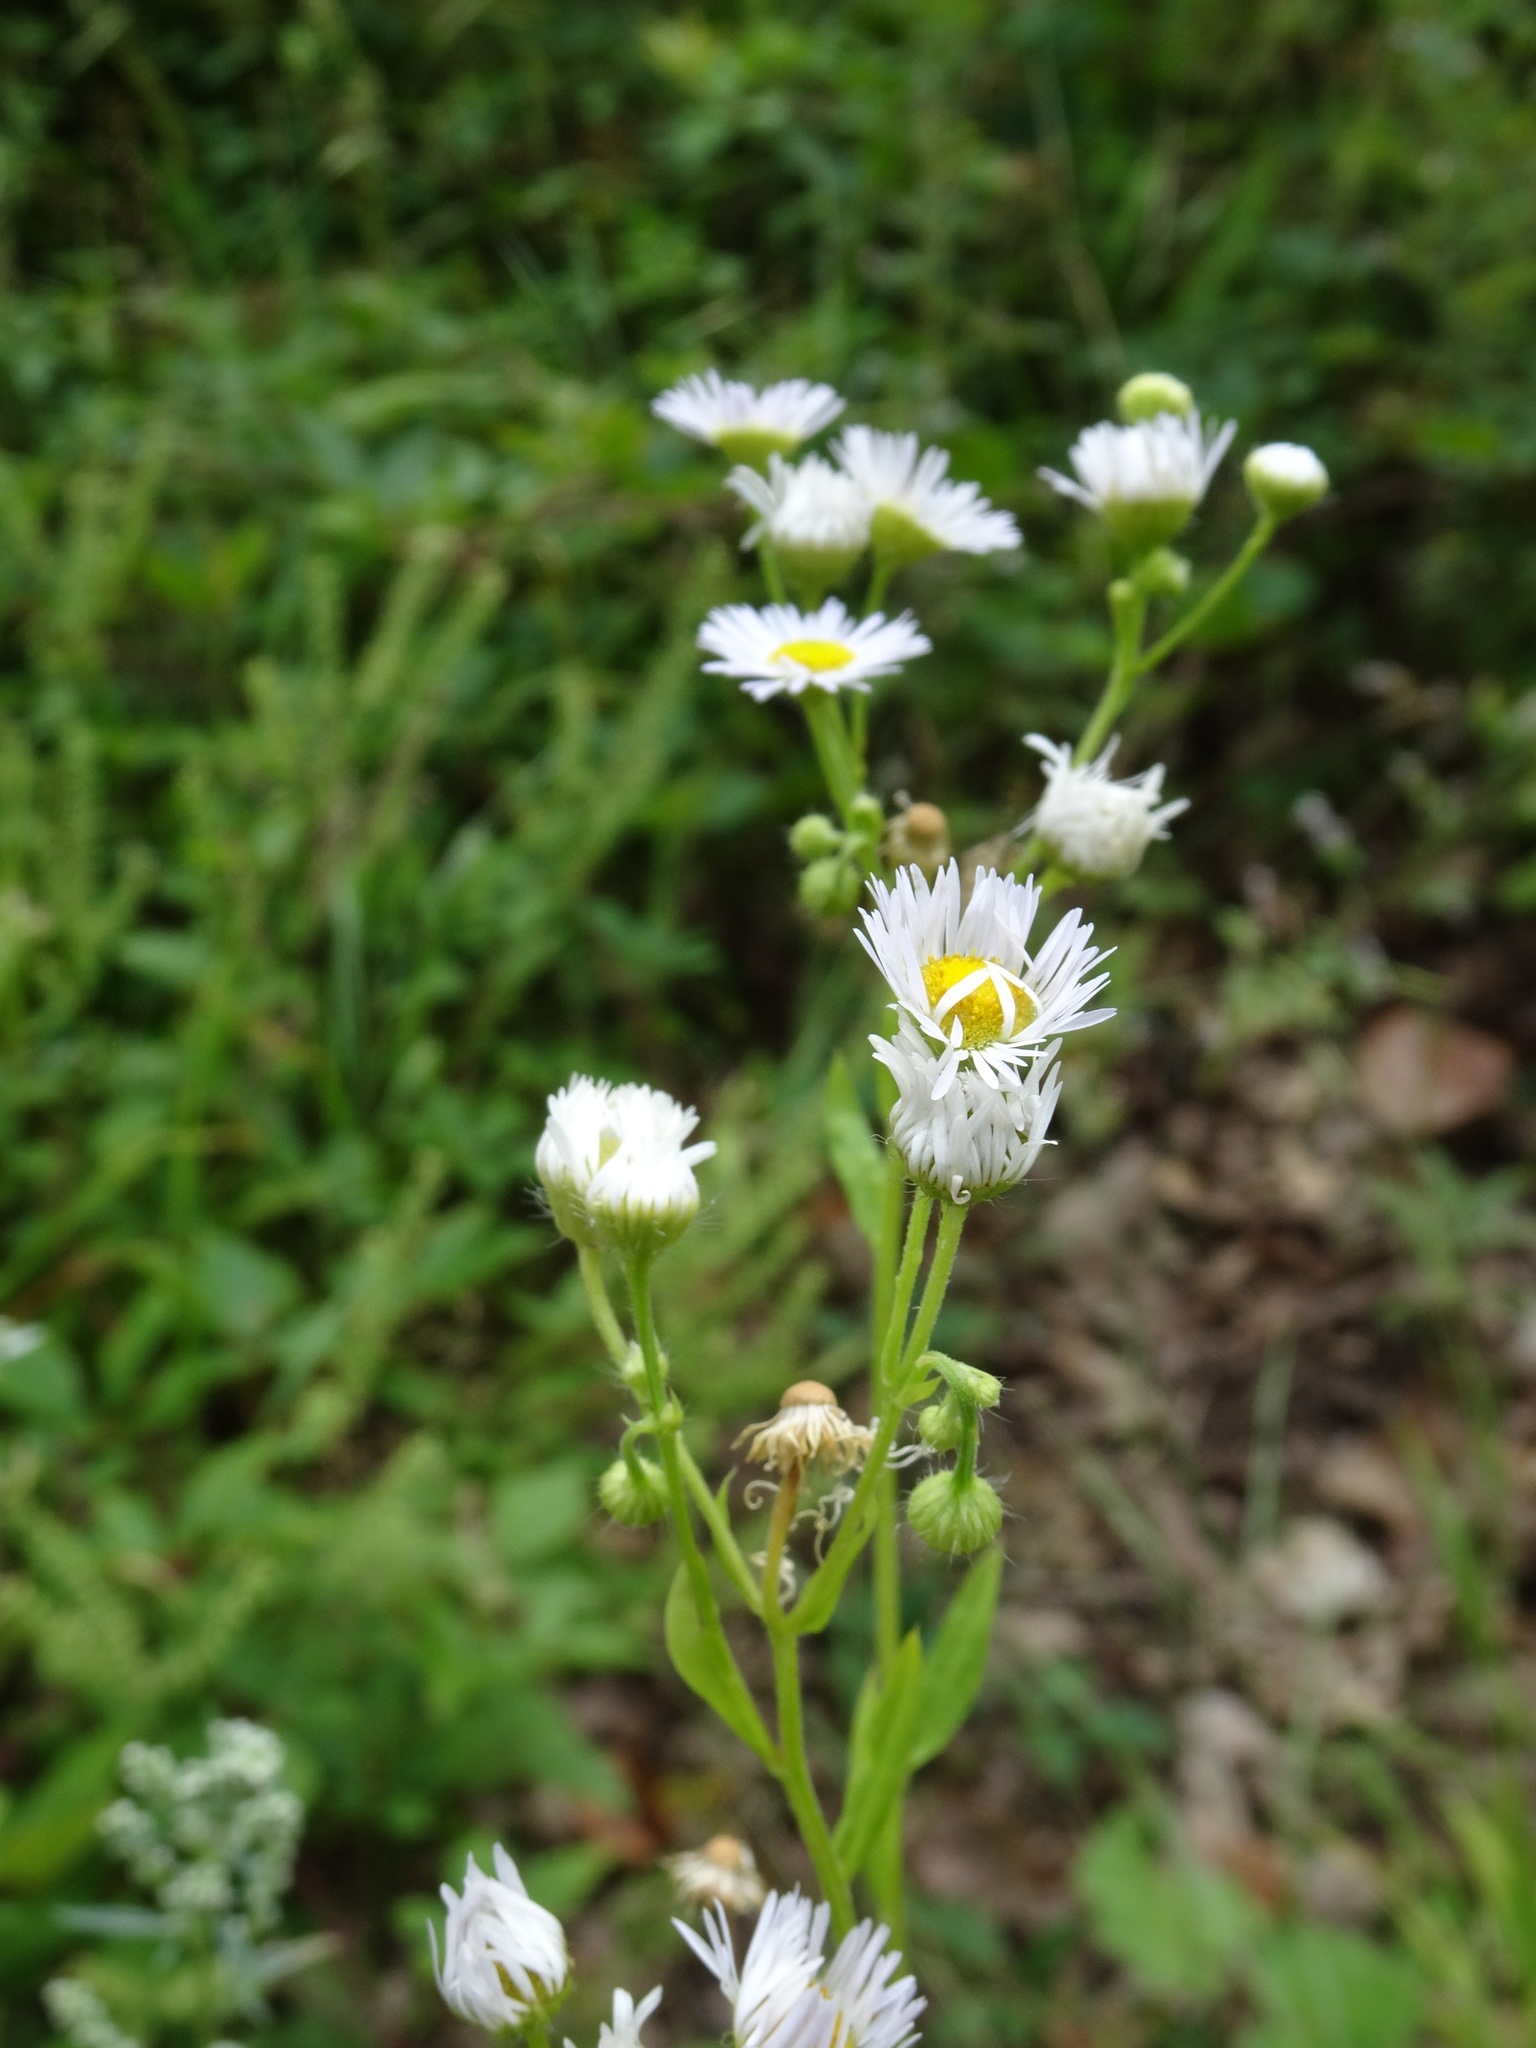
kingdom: Plantae
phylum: Tracheophyta
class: Magnoliopsida
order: Asterales
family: Asteraceae
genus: Erigeron
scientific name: Erigeron annuus
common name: Tall fleabane
